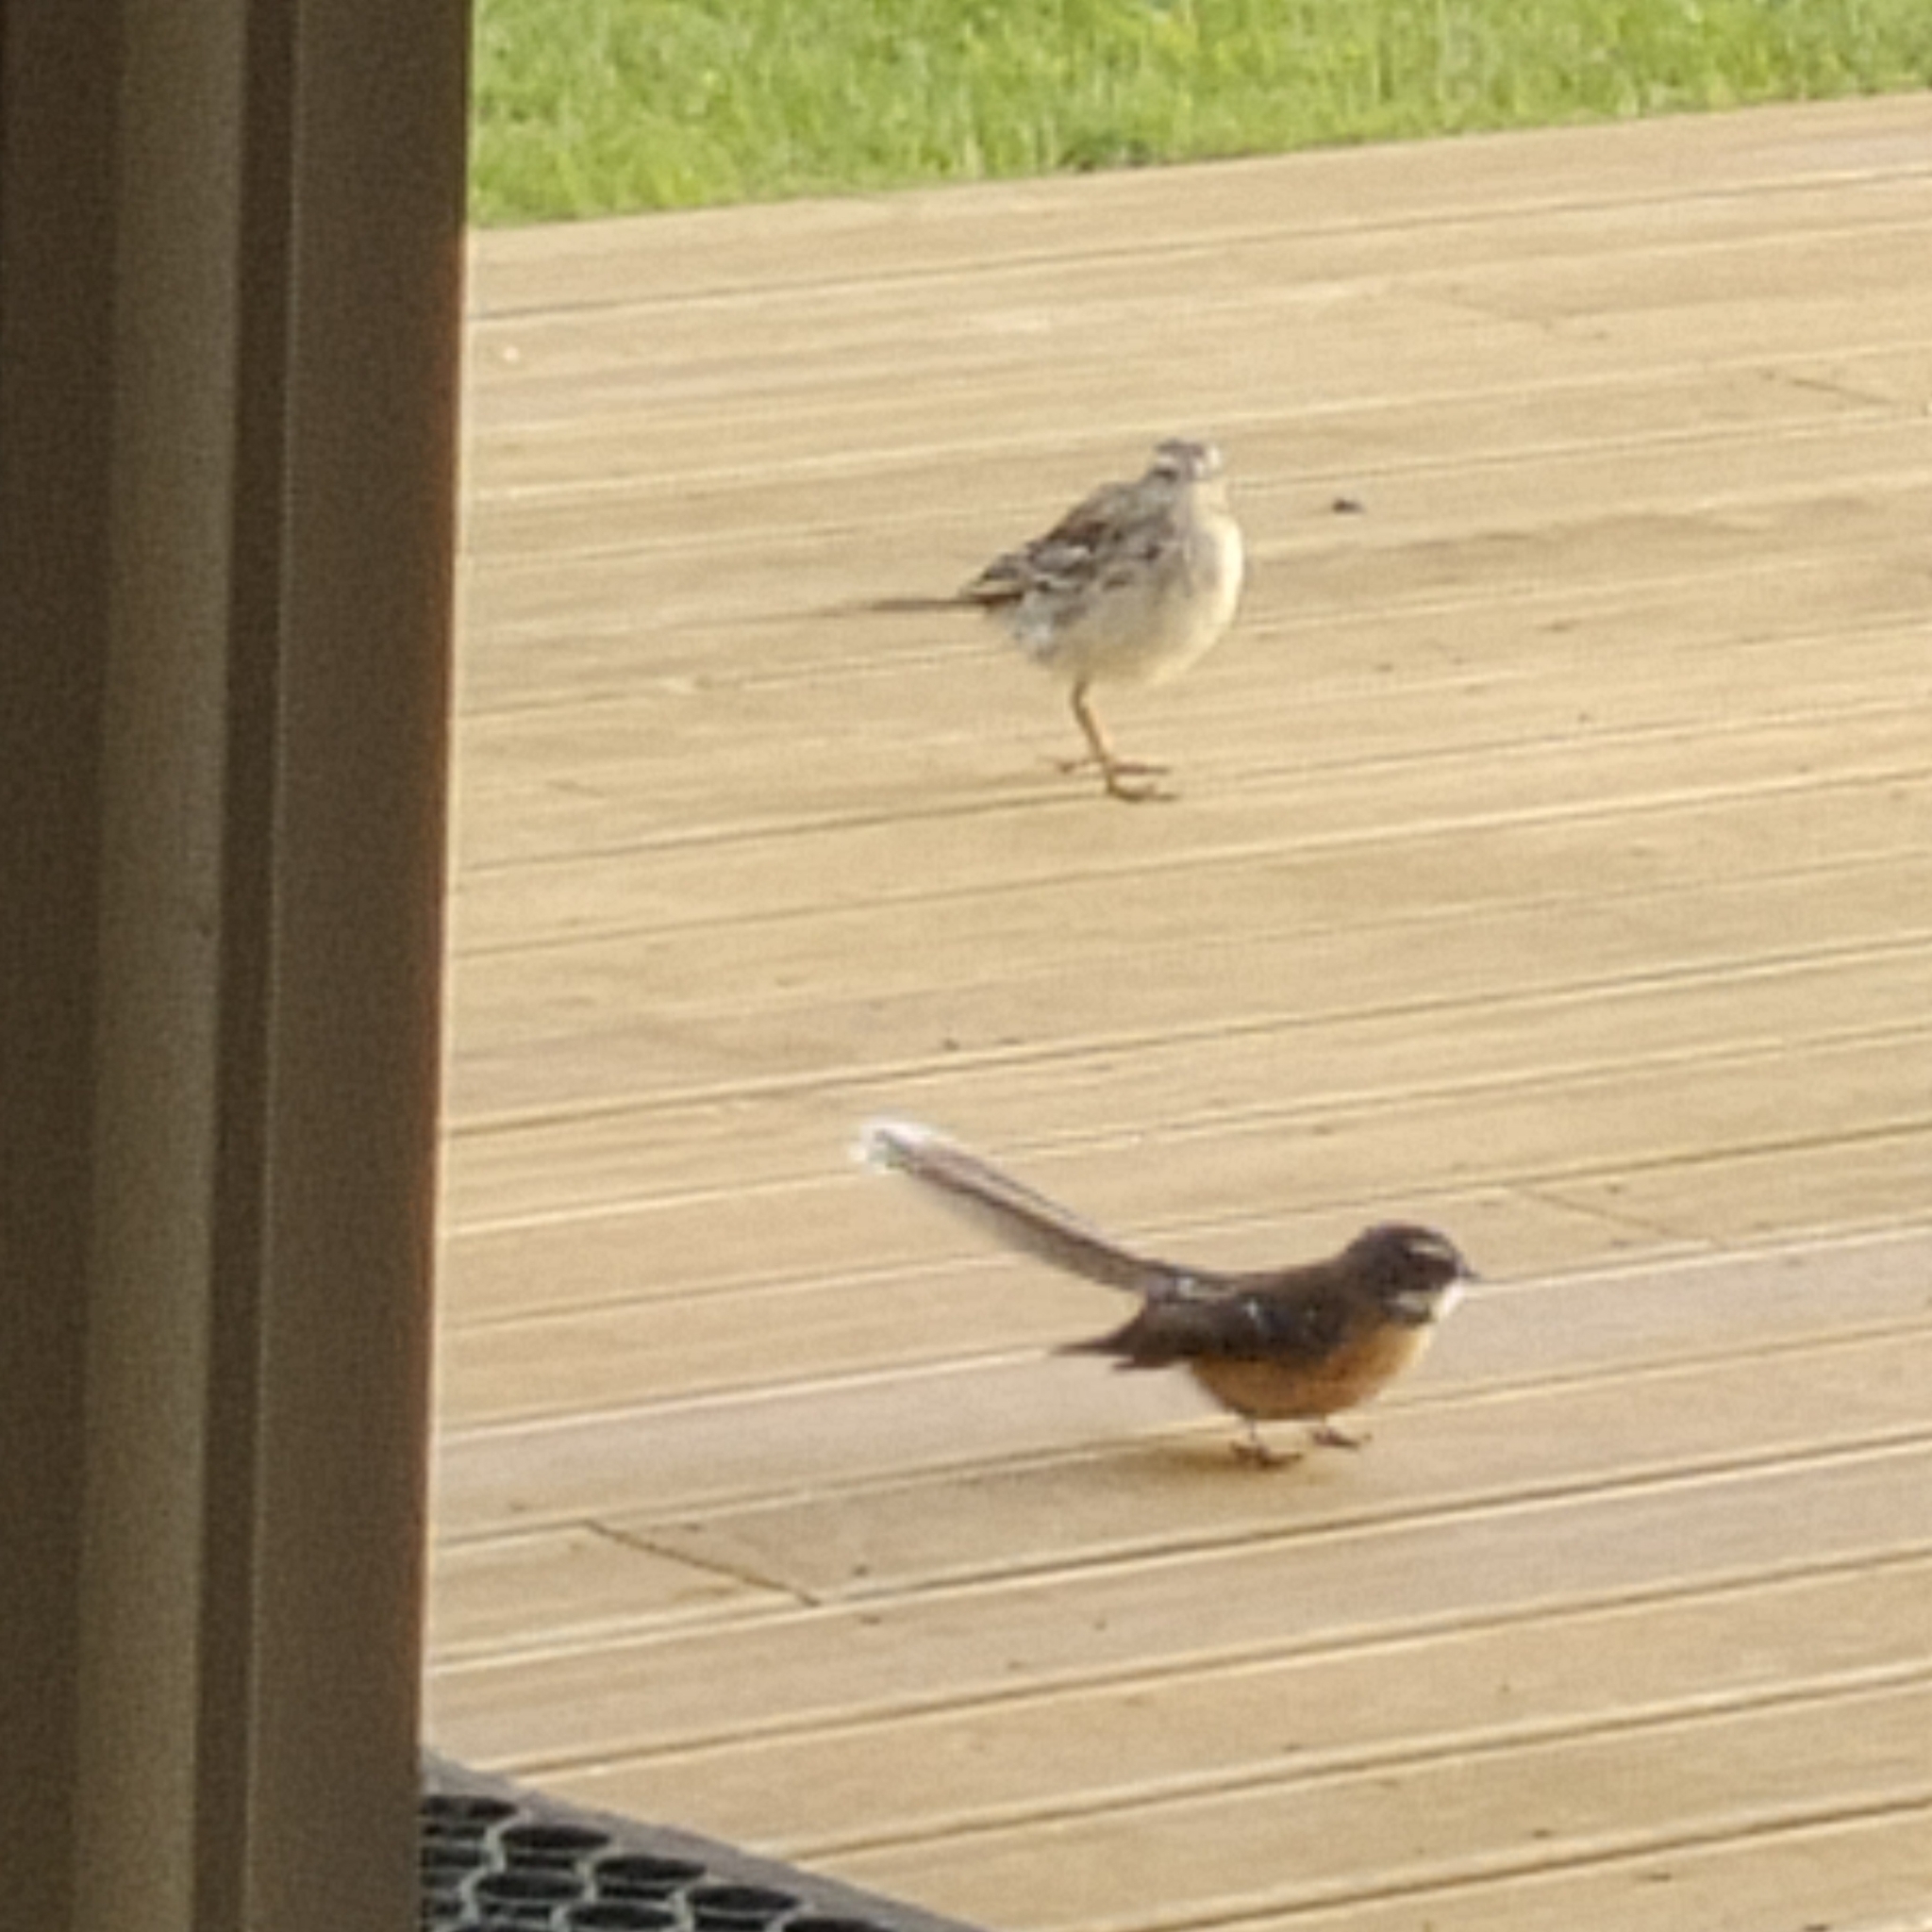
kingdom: Animalia
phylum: Chordata
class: Aves
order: Passeriformes
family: Rhipiduridae
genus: Rhipidura
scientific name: Rhipidura fuliginosa
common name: New zealand fantail
